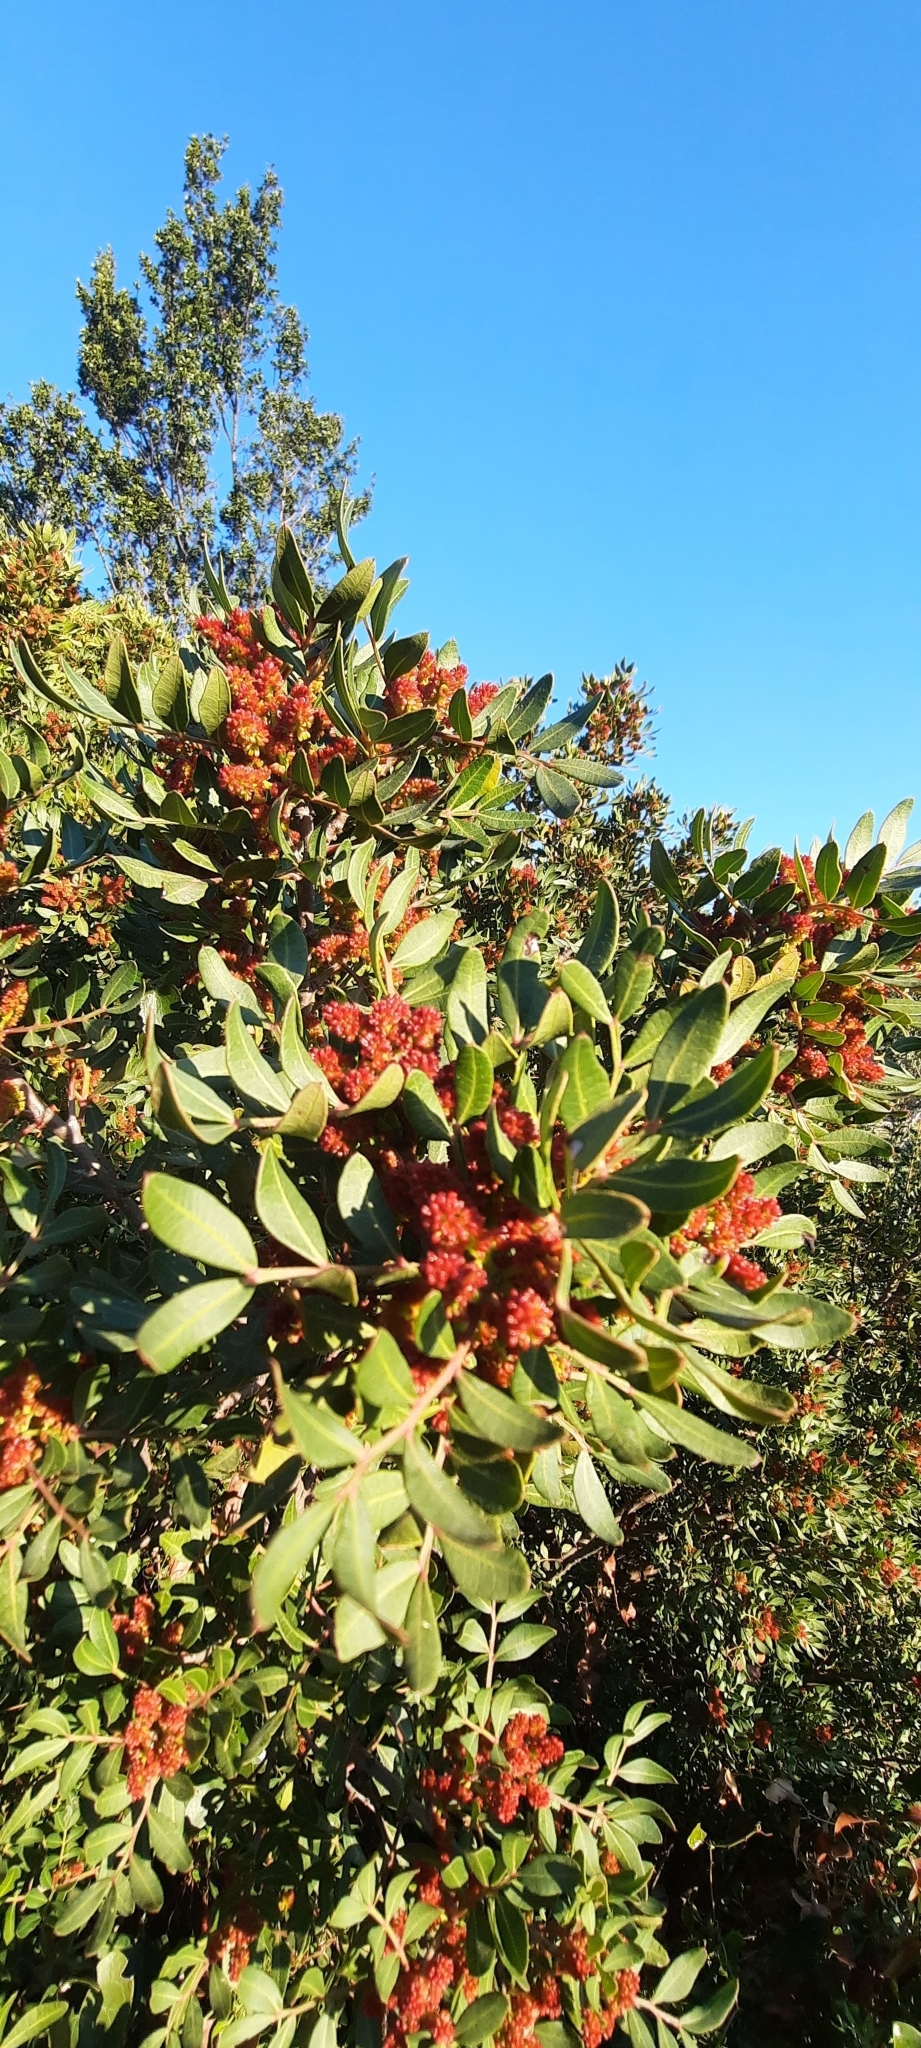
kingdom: Plantae
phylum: Tracheophyta
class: Magnoliopsida
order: Sapindales
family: Anacardiaceae
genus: Pistacia
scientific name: Pistacia lentiscus
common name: Lentisk
